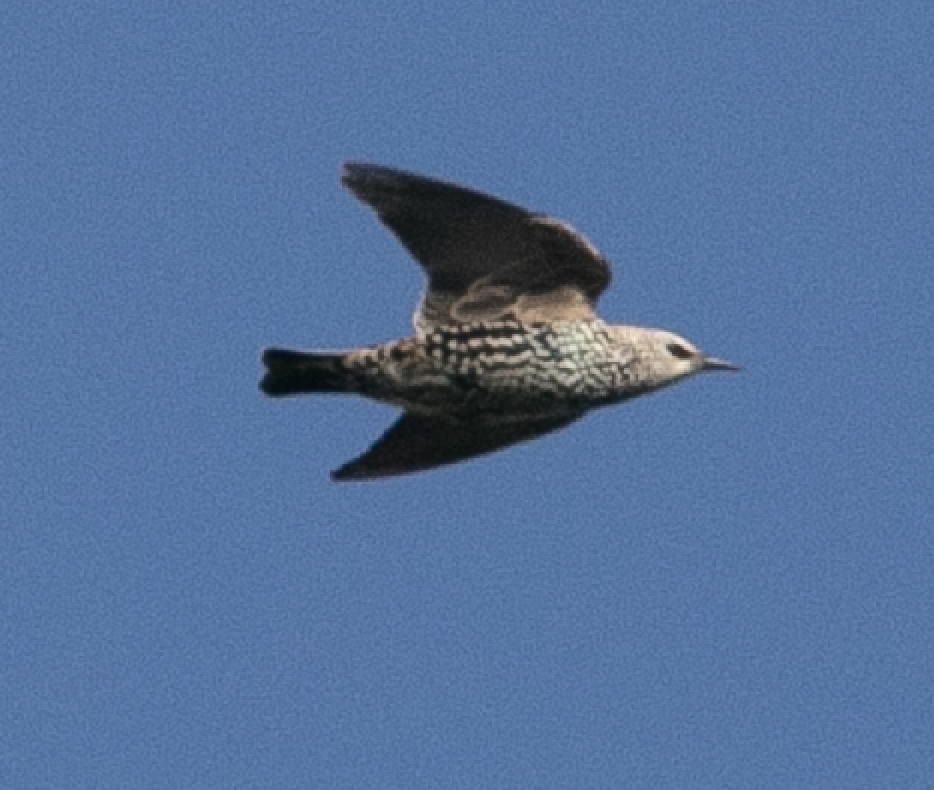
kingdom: Animalia
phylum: Chordata
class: Aves
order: Passeriformes
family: Sturnidae
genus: Sturnus
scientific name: Sturnus vulgaris
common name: Common starling
